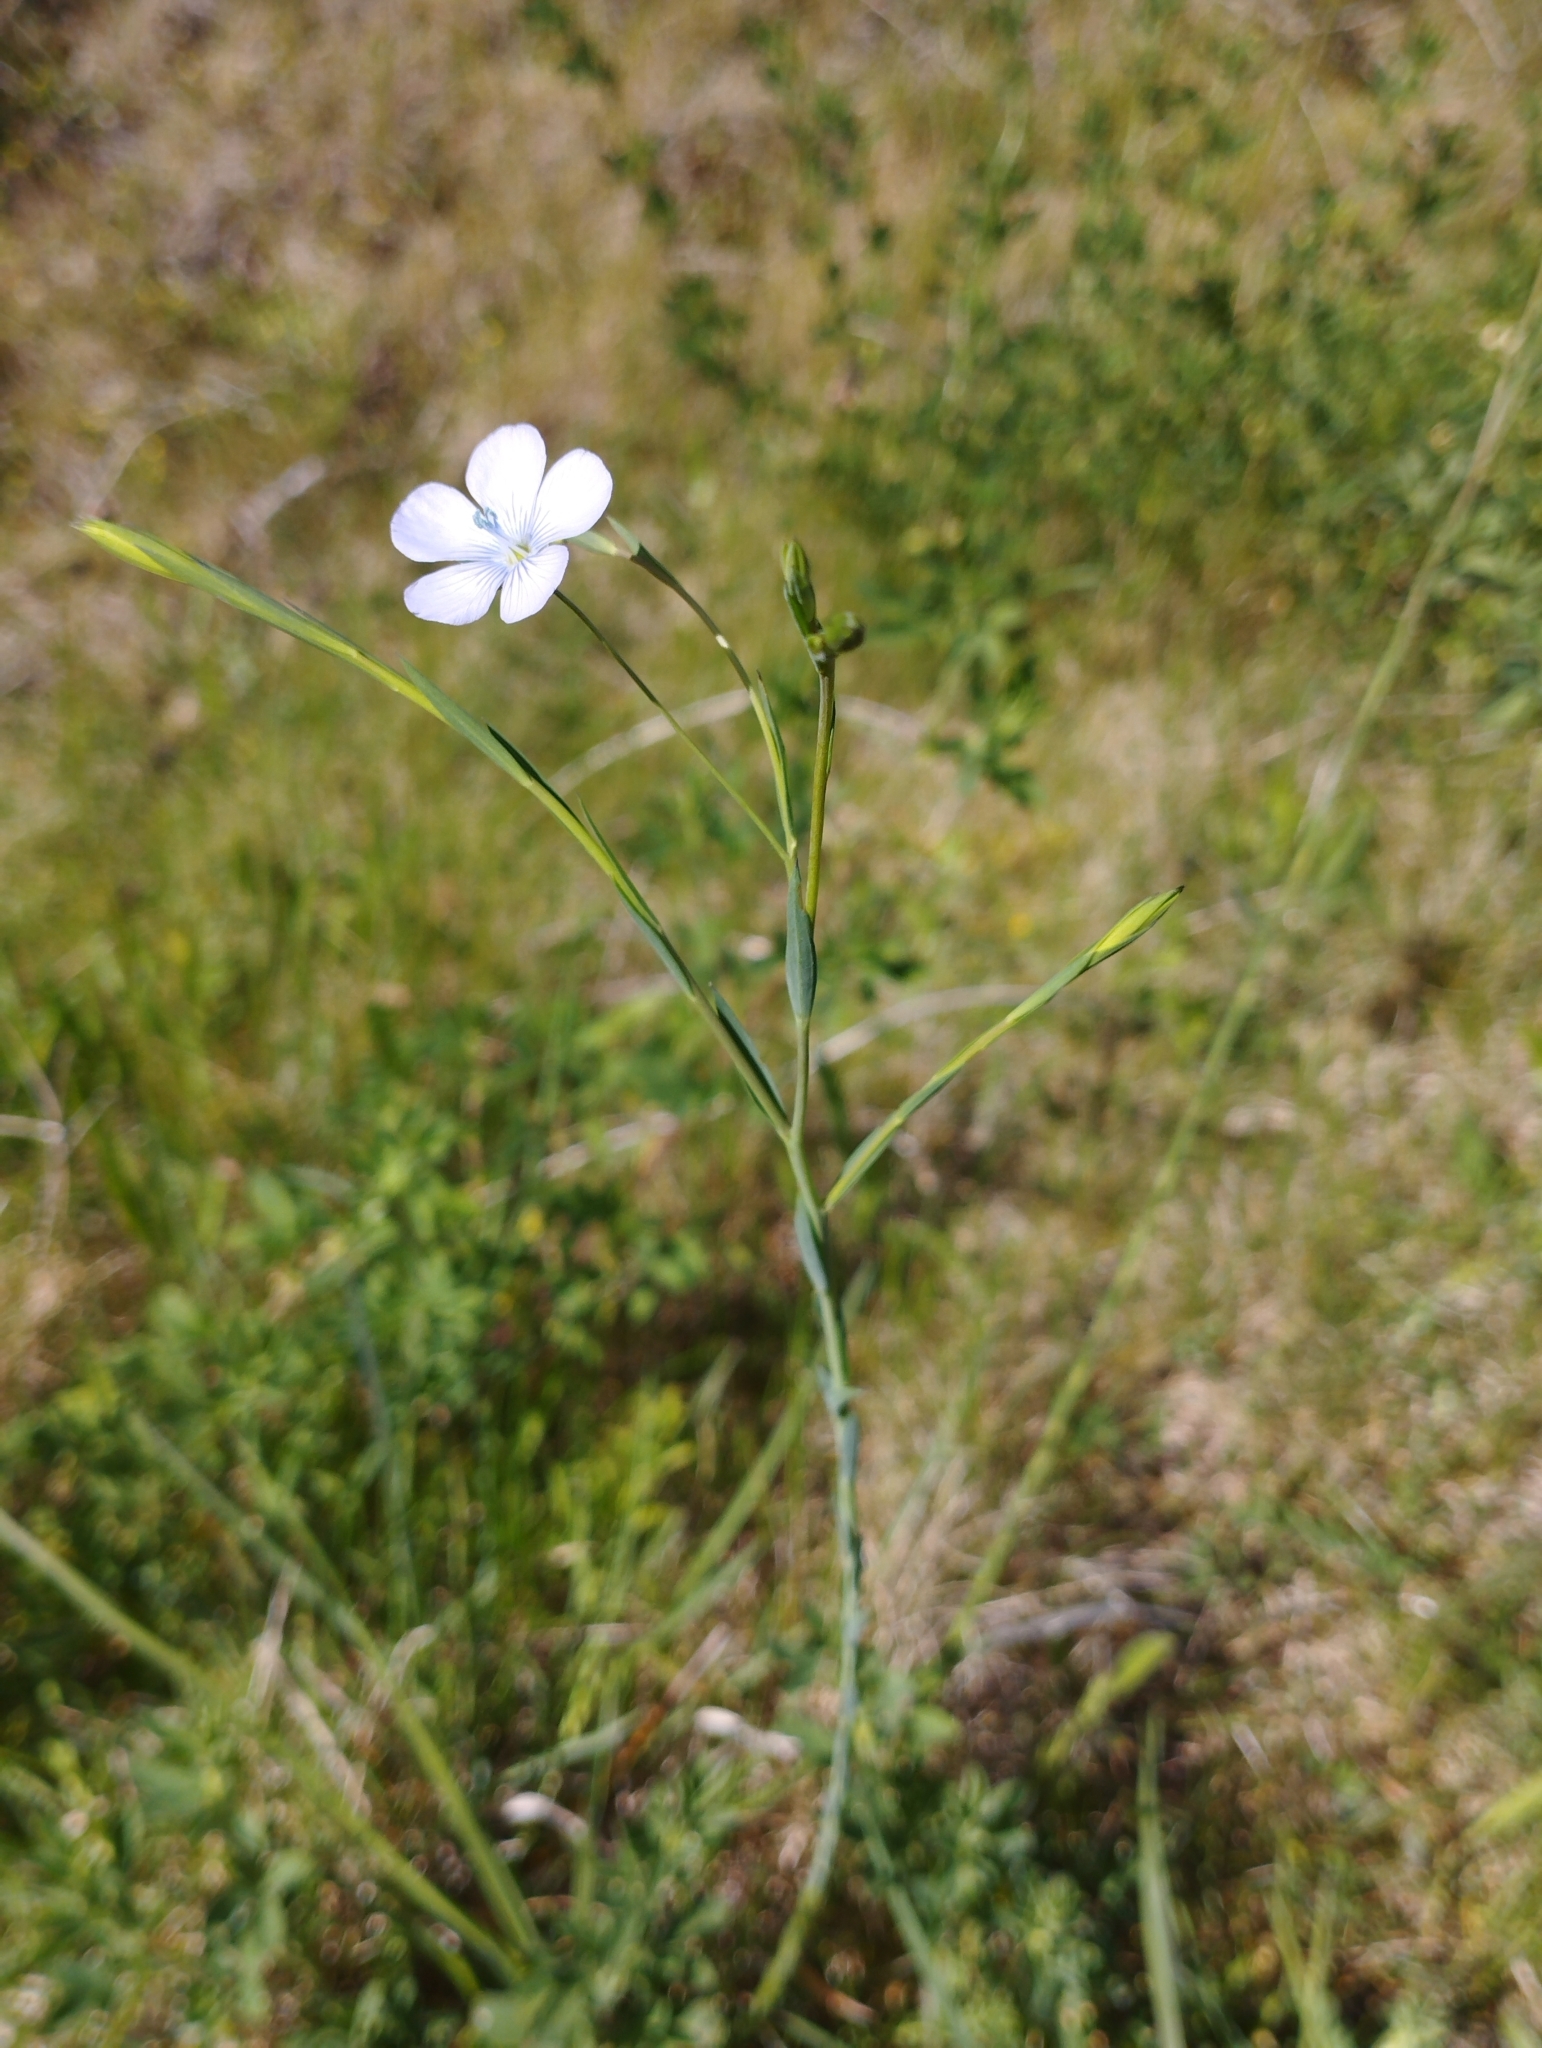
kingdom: Plantae
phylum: Tracheophyta
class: Magnoliopsida
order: Malpighiales
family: Linaceae
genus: Linum
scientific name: Linum bienne
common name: Pale flax
